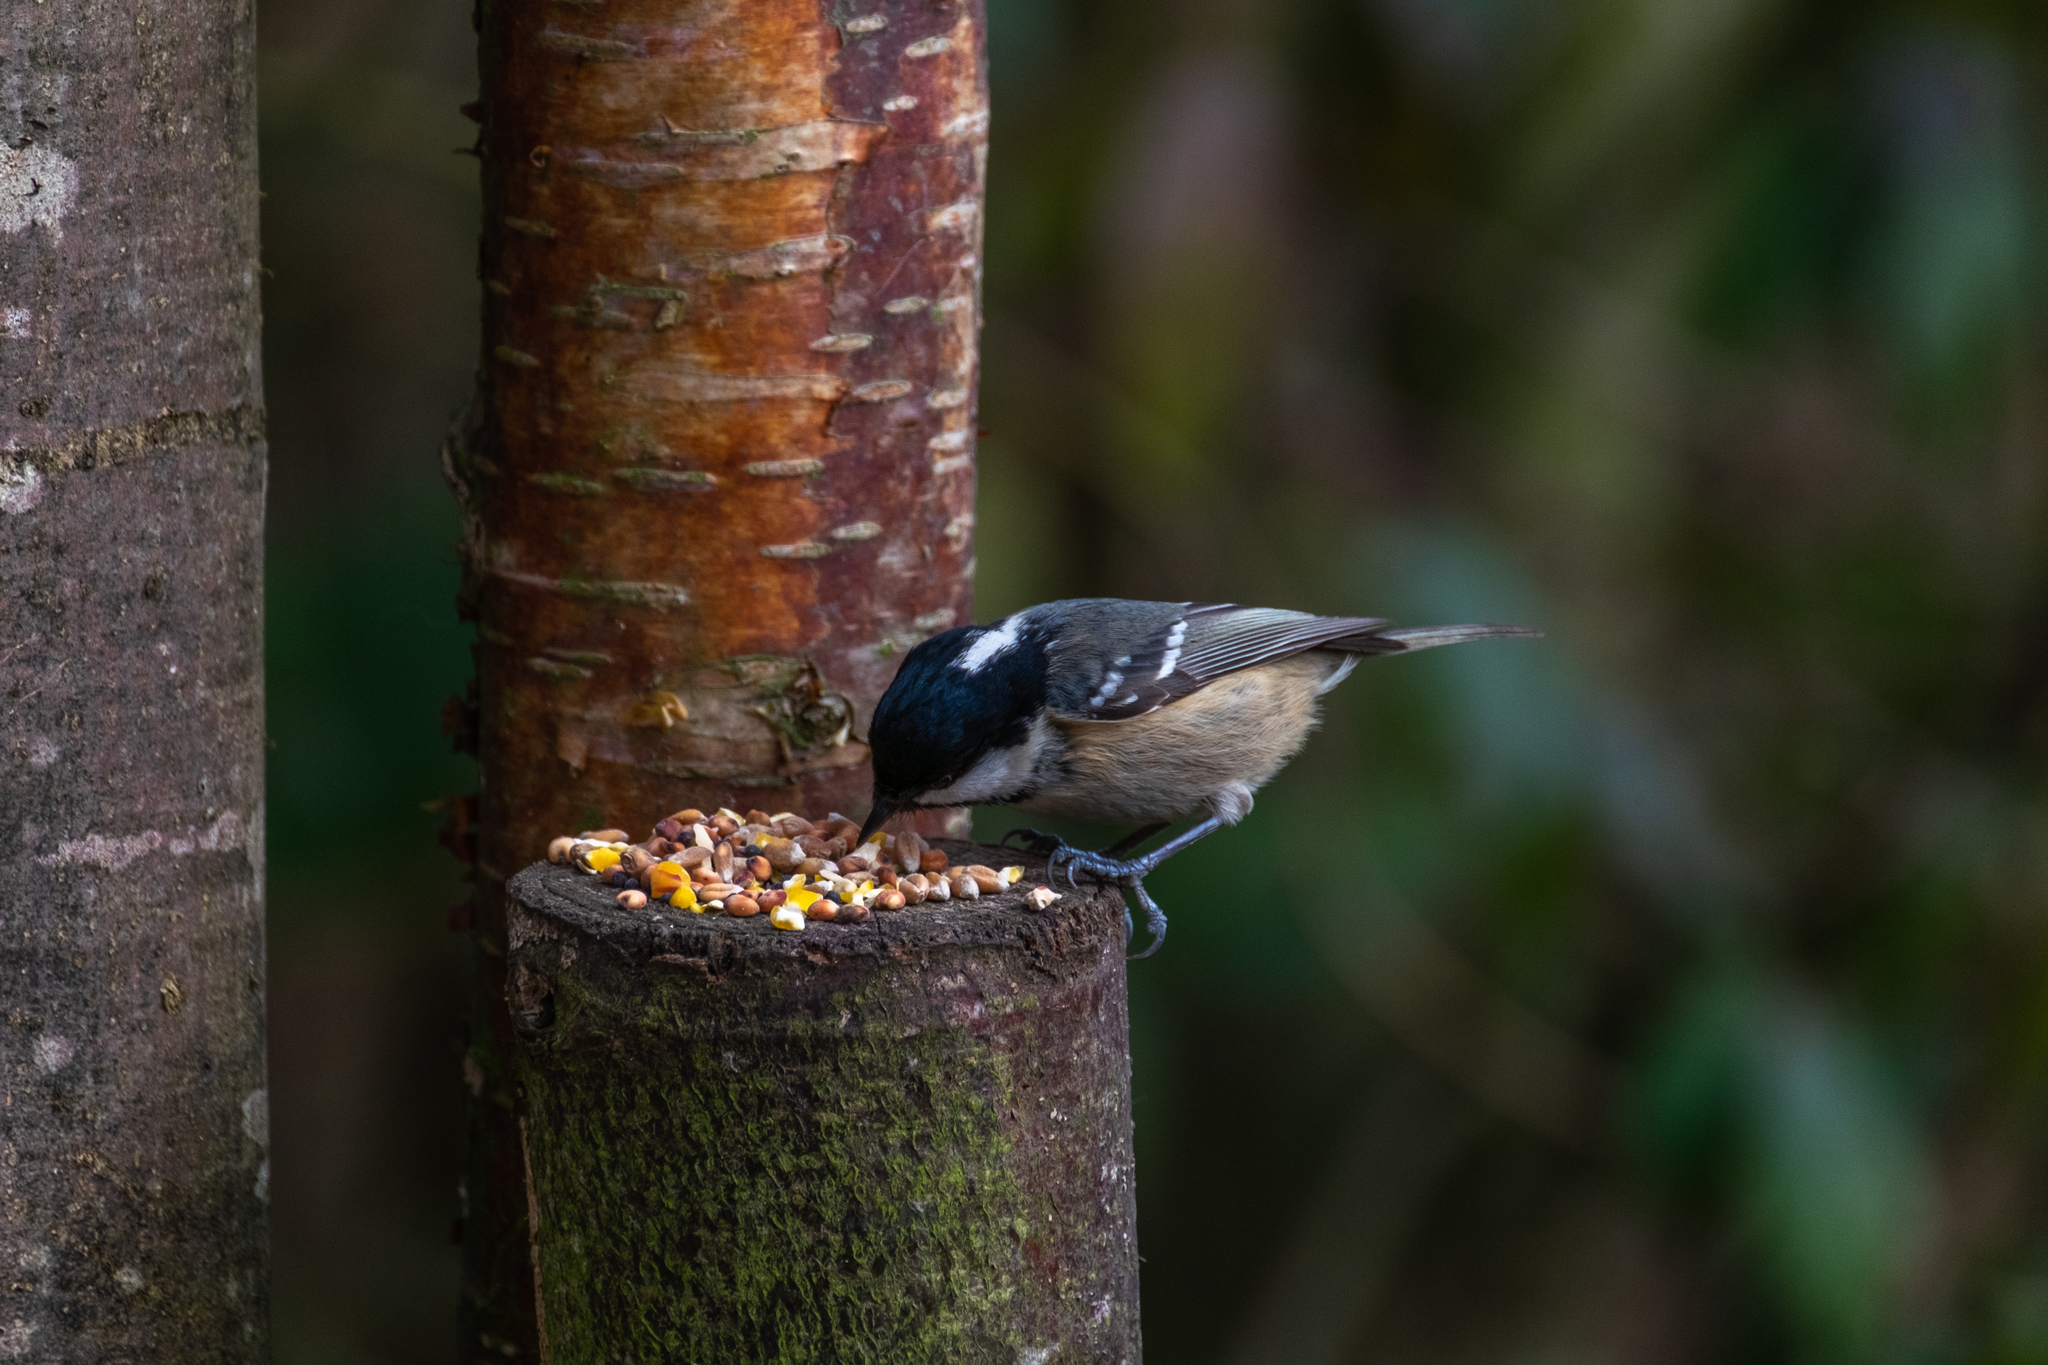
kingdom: Animalia
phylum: Chordata
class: Aves
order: Passeriformes
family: Paridae
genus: Periparus
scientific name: Periparus ater
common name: Coal tit
